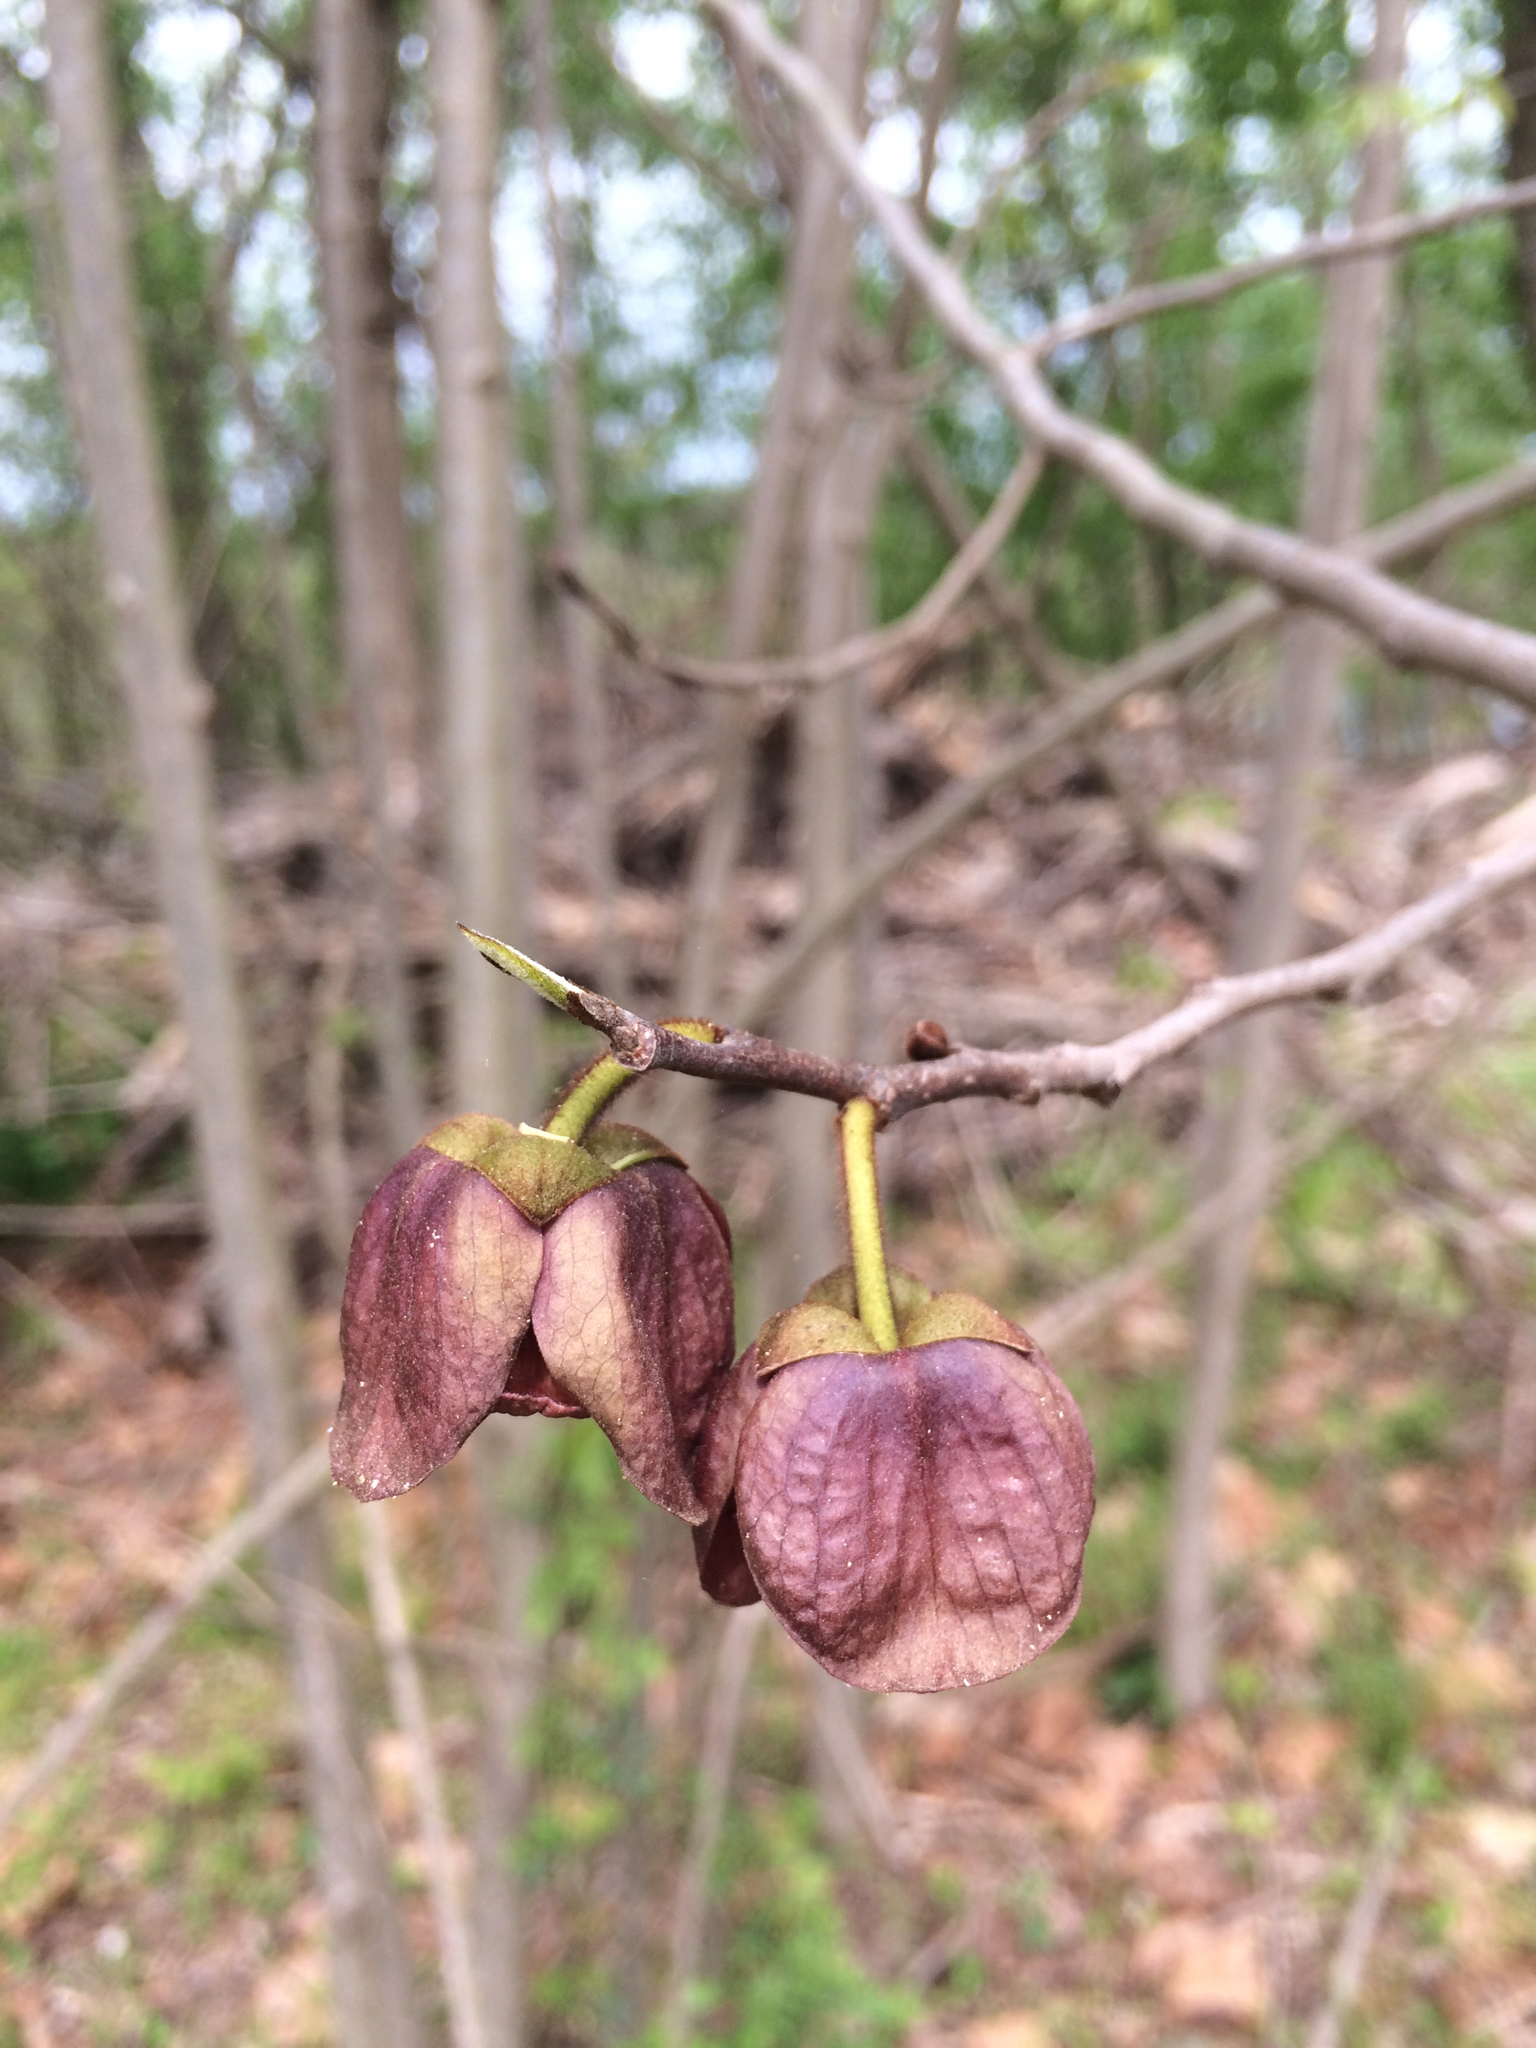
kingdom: Plantae
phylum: Tracheophyta
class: Magnoliopsida
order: Magnoliales
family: Annonaceae
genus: Asimina
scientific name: Asimina triloba
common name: Dog-banana
